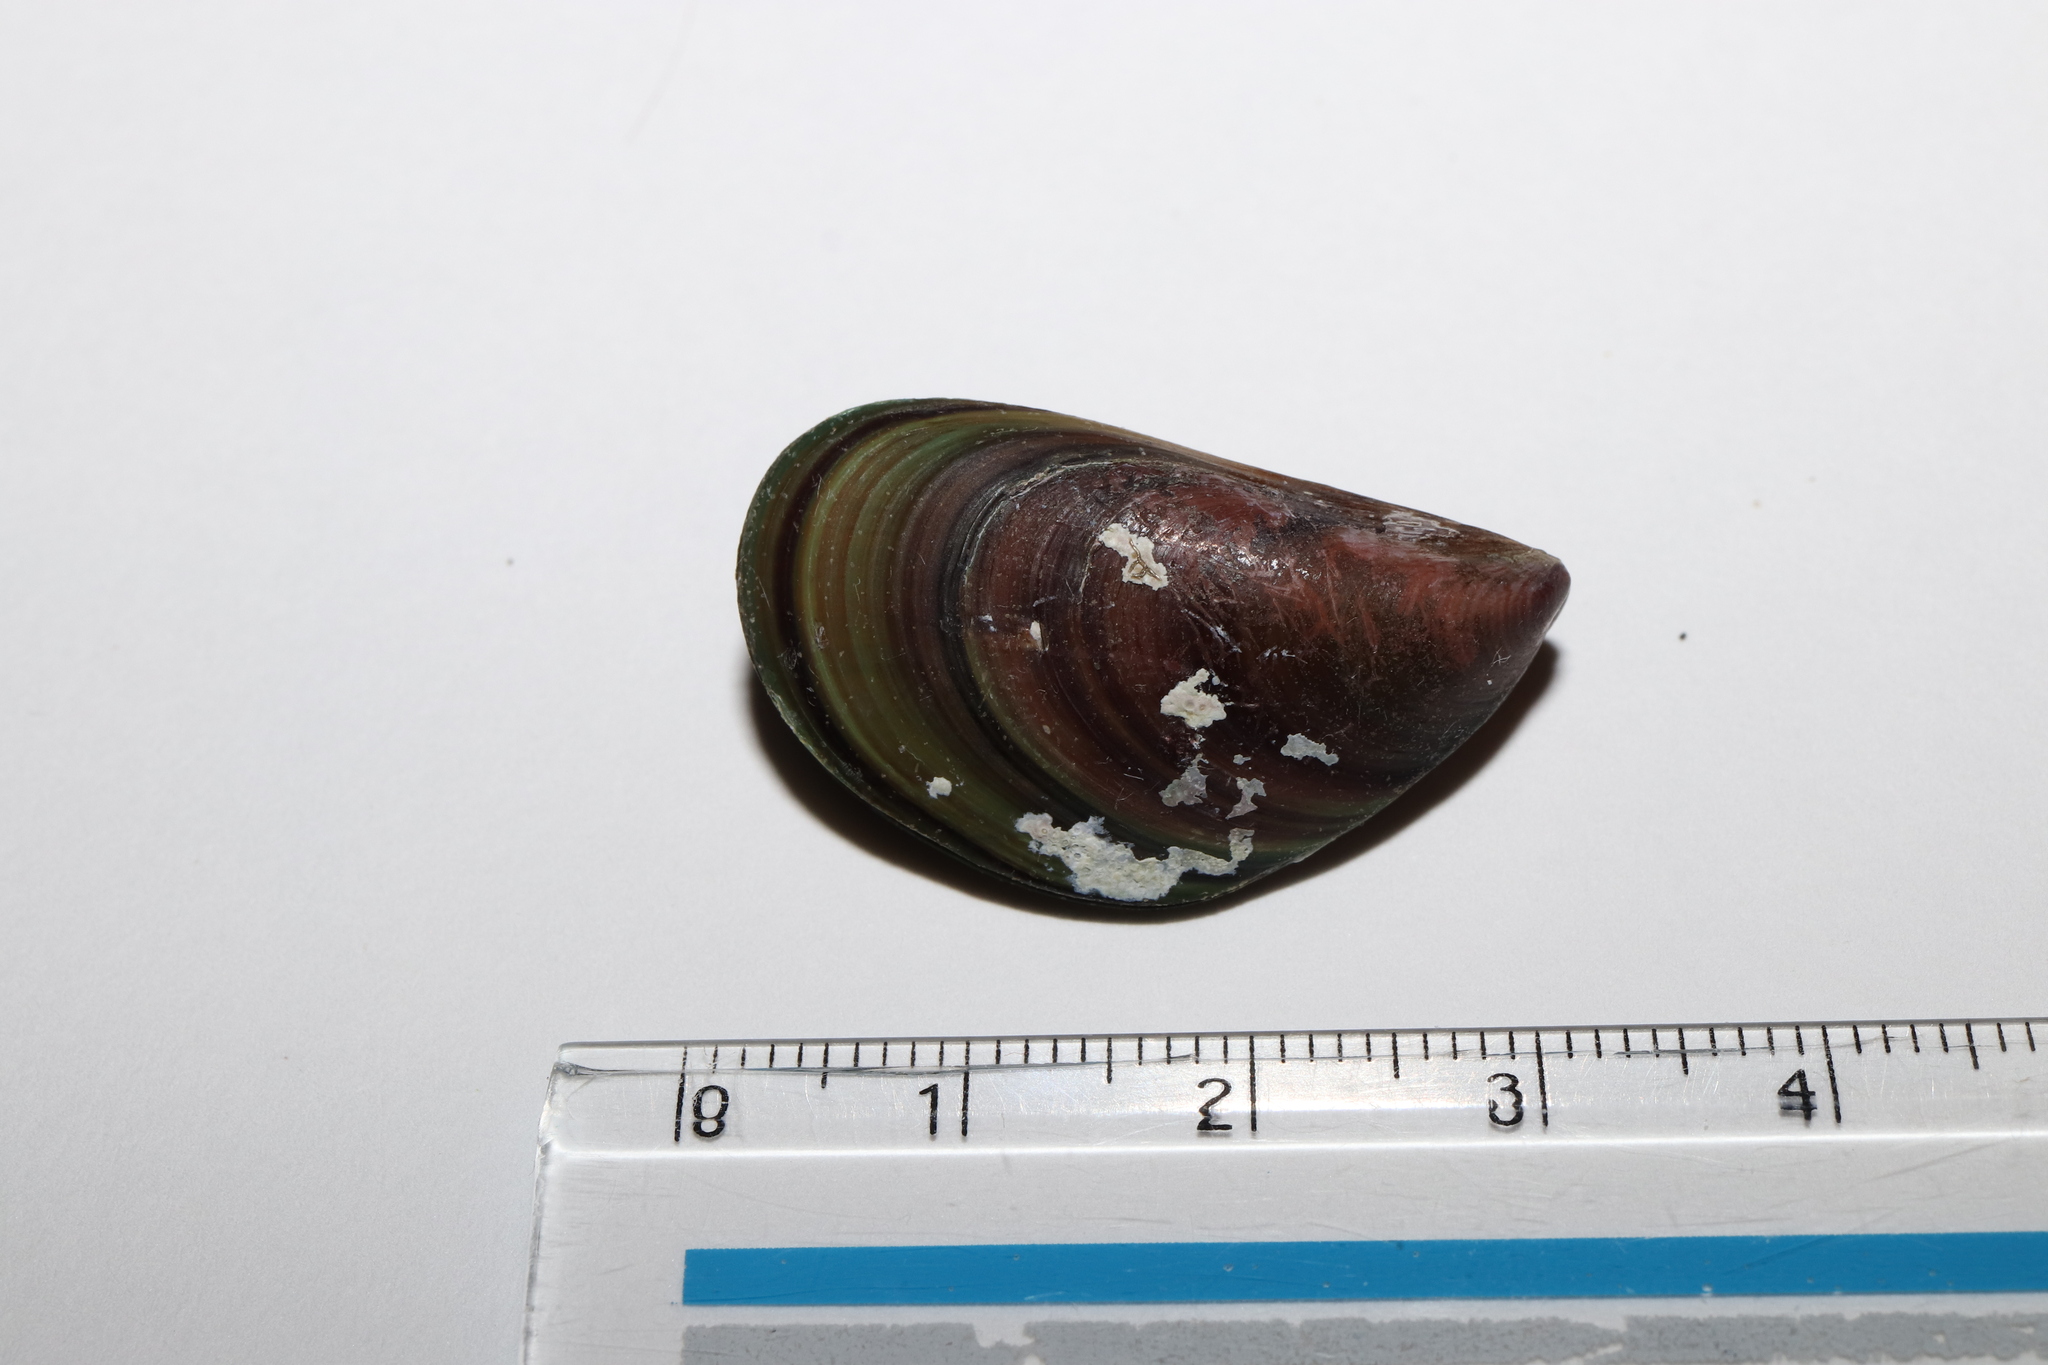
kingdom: Animalia
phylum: Mollusca
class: Bivalvia
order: Mytilida
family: Mytilidae
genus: Perna
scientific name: Perna viridis
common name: Green mussel
